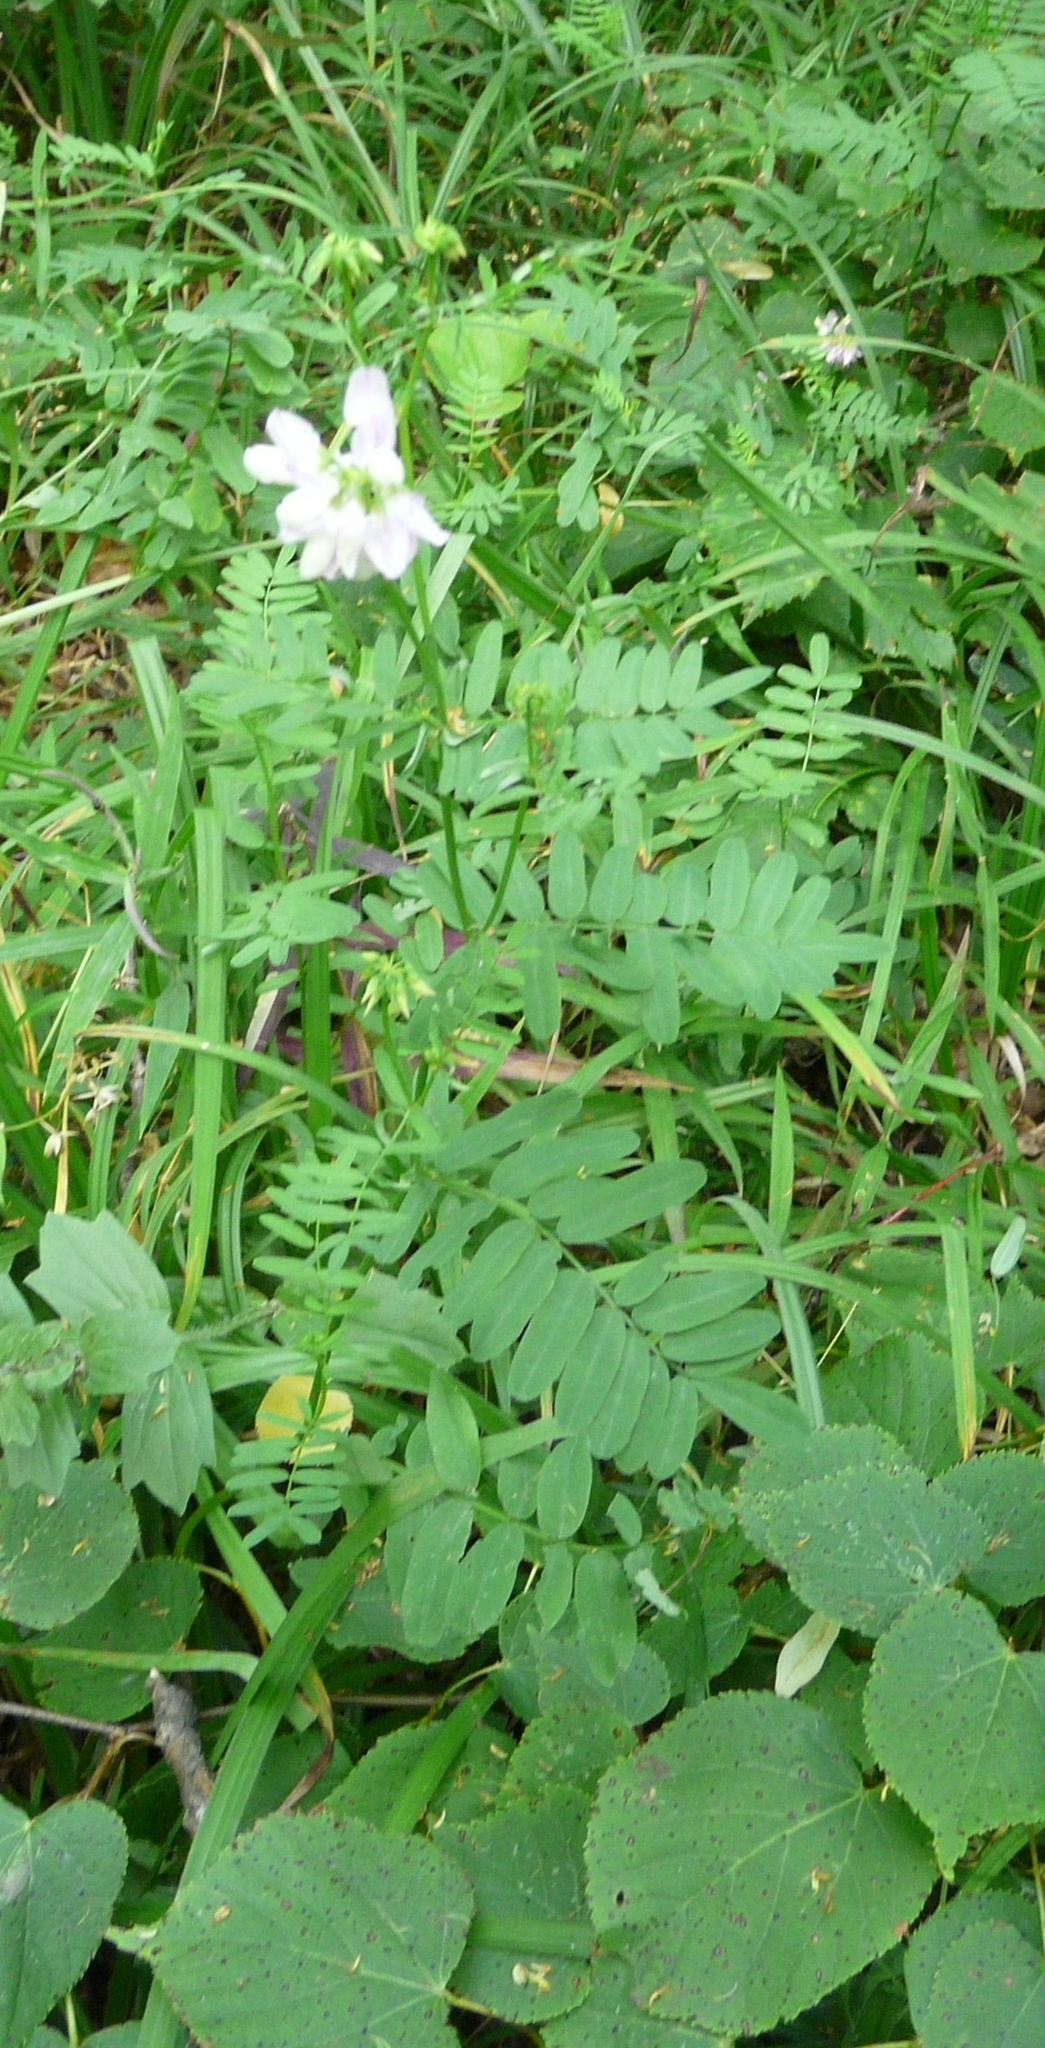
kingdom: Plantae
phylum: Tracheophyta
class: Magnoliopsida
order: Fabales
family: Fabaceae
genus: Coronilla
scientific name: Coronilla varia
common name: Crownvetch
